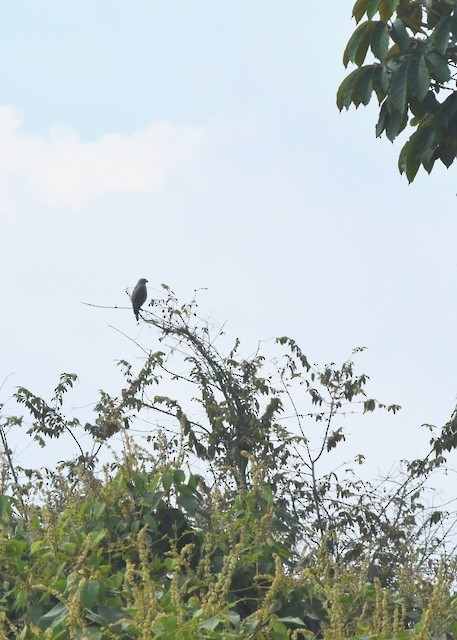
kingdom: Animalia
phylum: Chordata
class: Aves
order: Accipitriformes
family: Accipitridae
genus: Rupornis
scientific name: Rupornis magnirostris
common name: Roadside hawk
